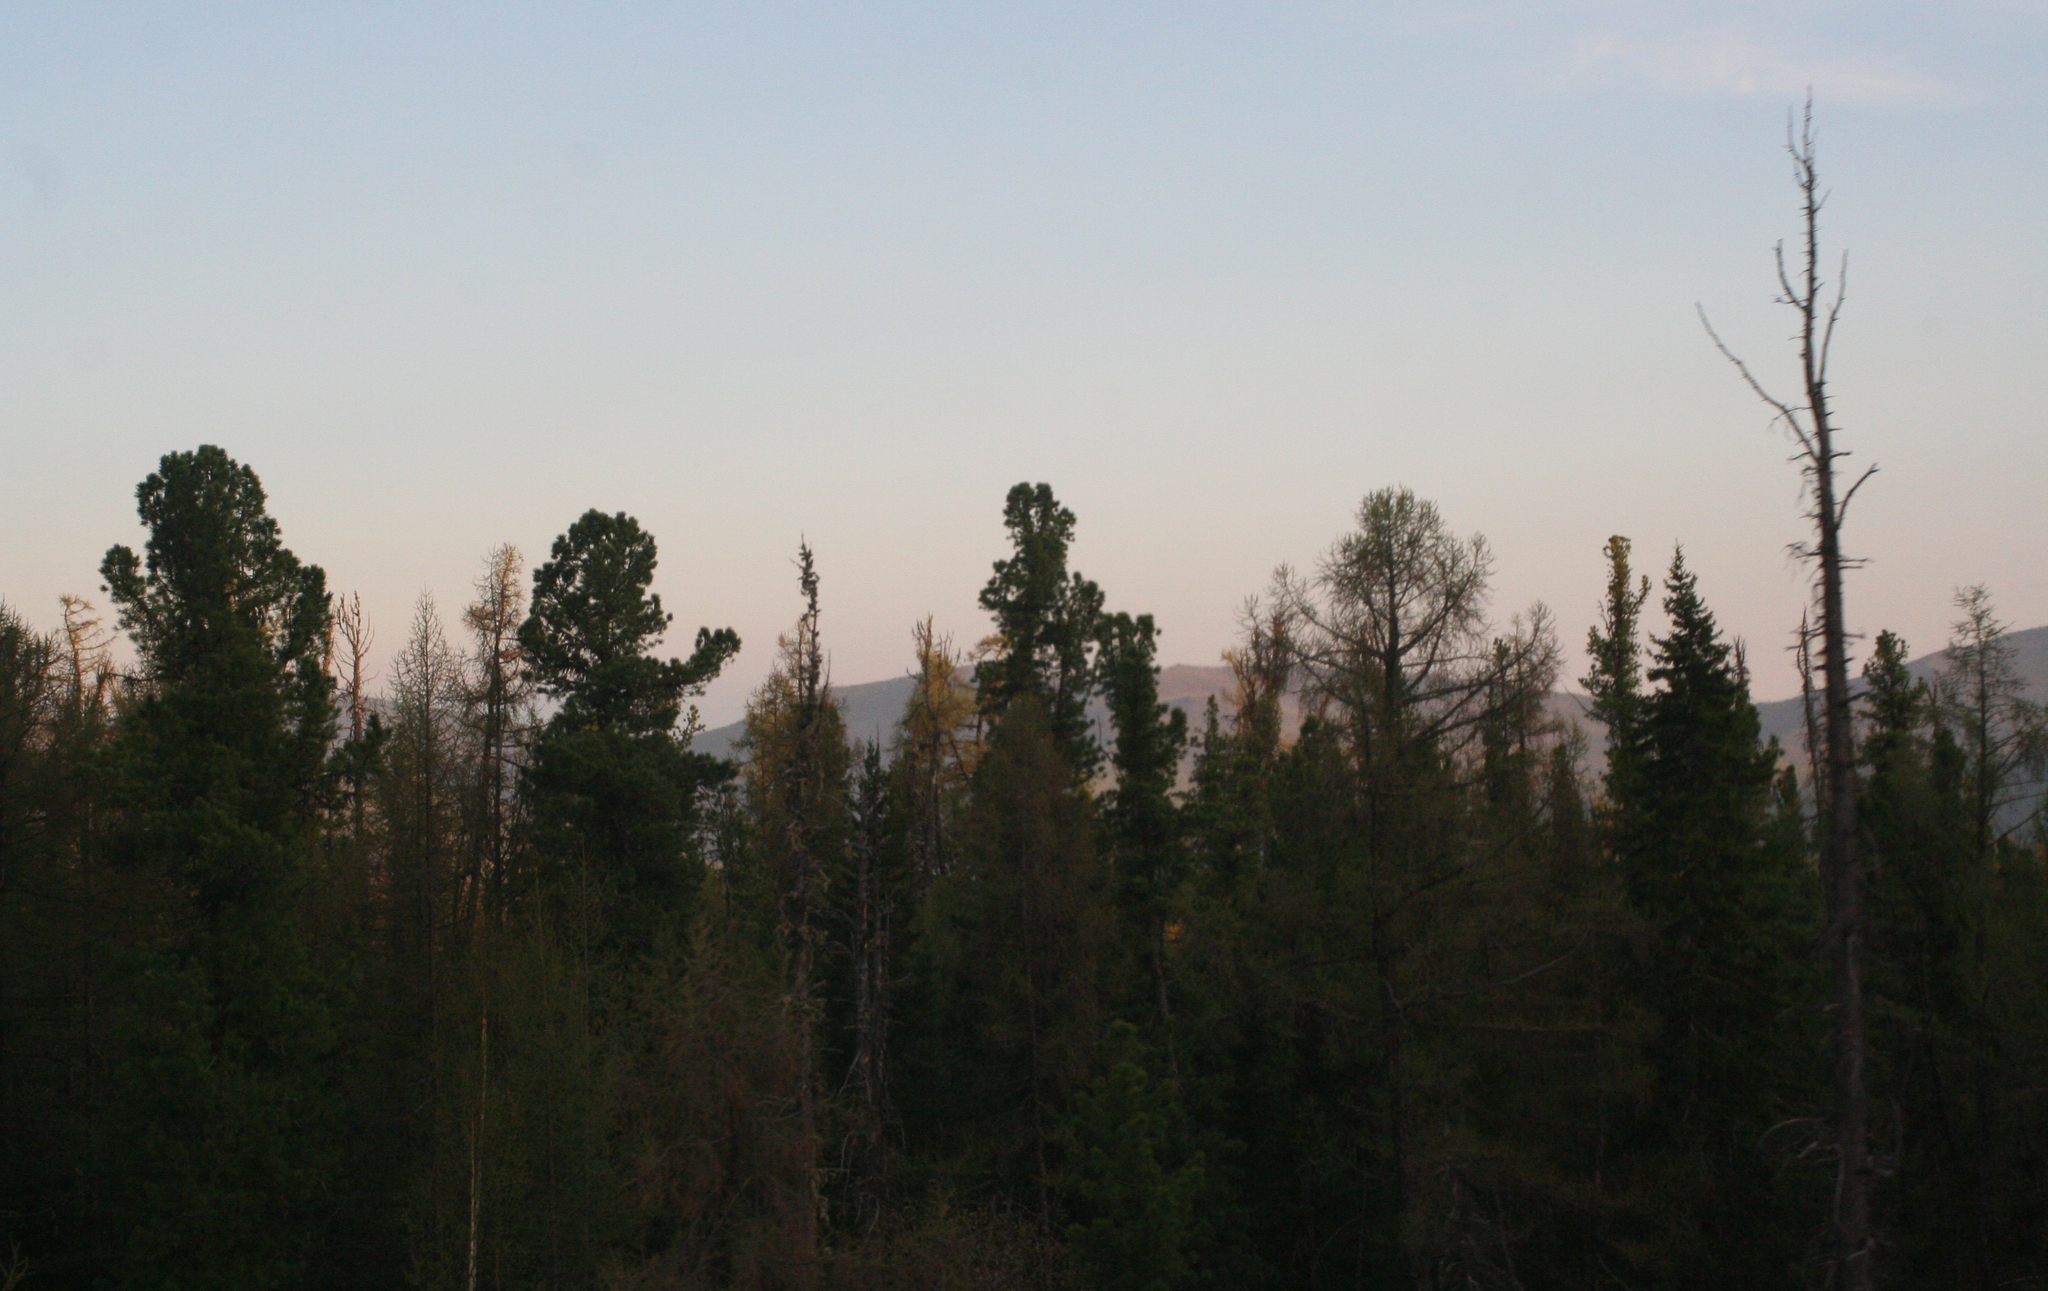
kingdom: Plantae
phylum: Tracheophyta
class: Pinopsida
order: Pinales
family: Pinaceae
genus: Pinus
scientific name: Pinus sibirica
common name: Siberian pine
